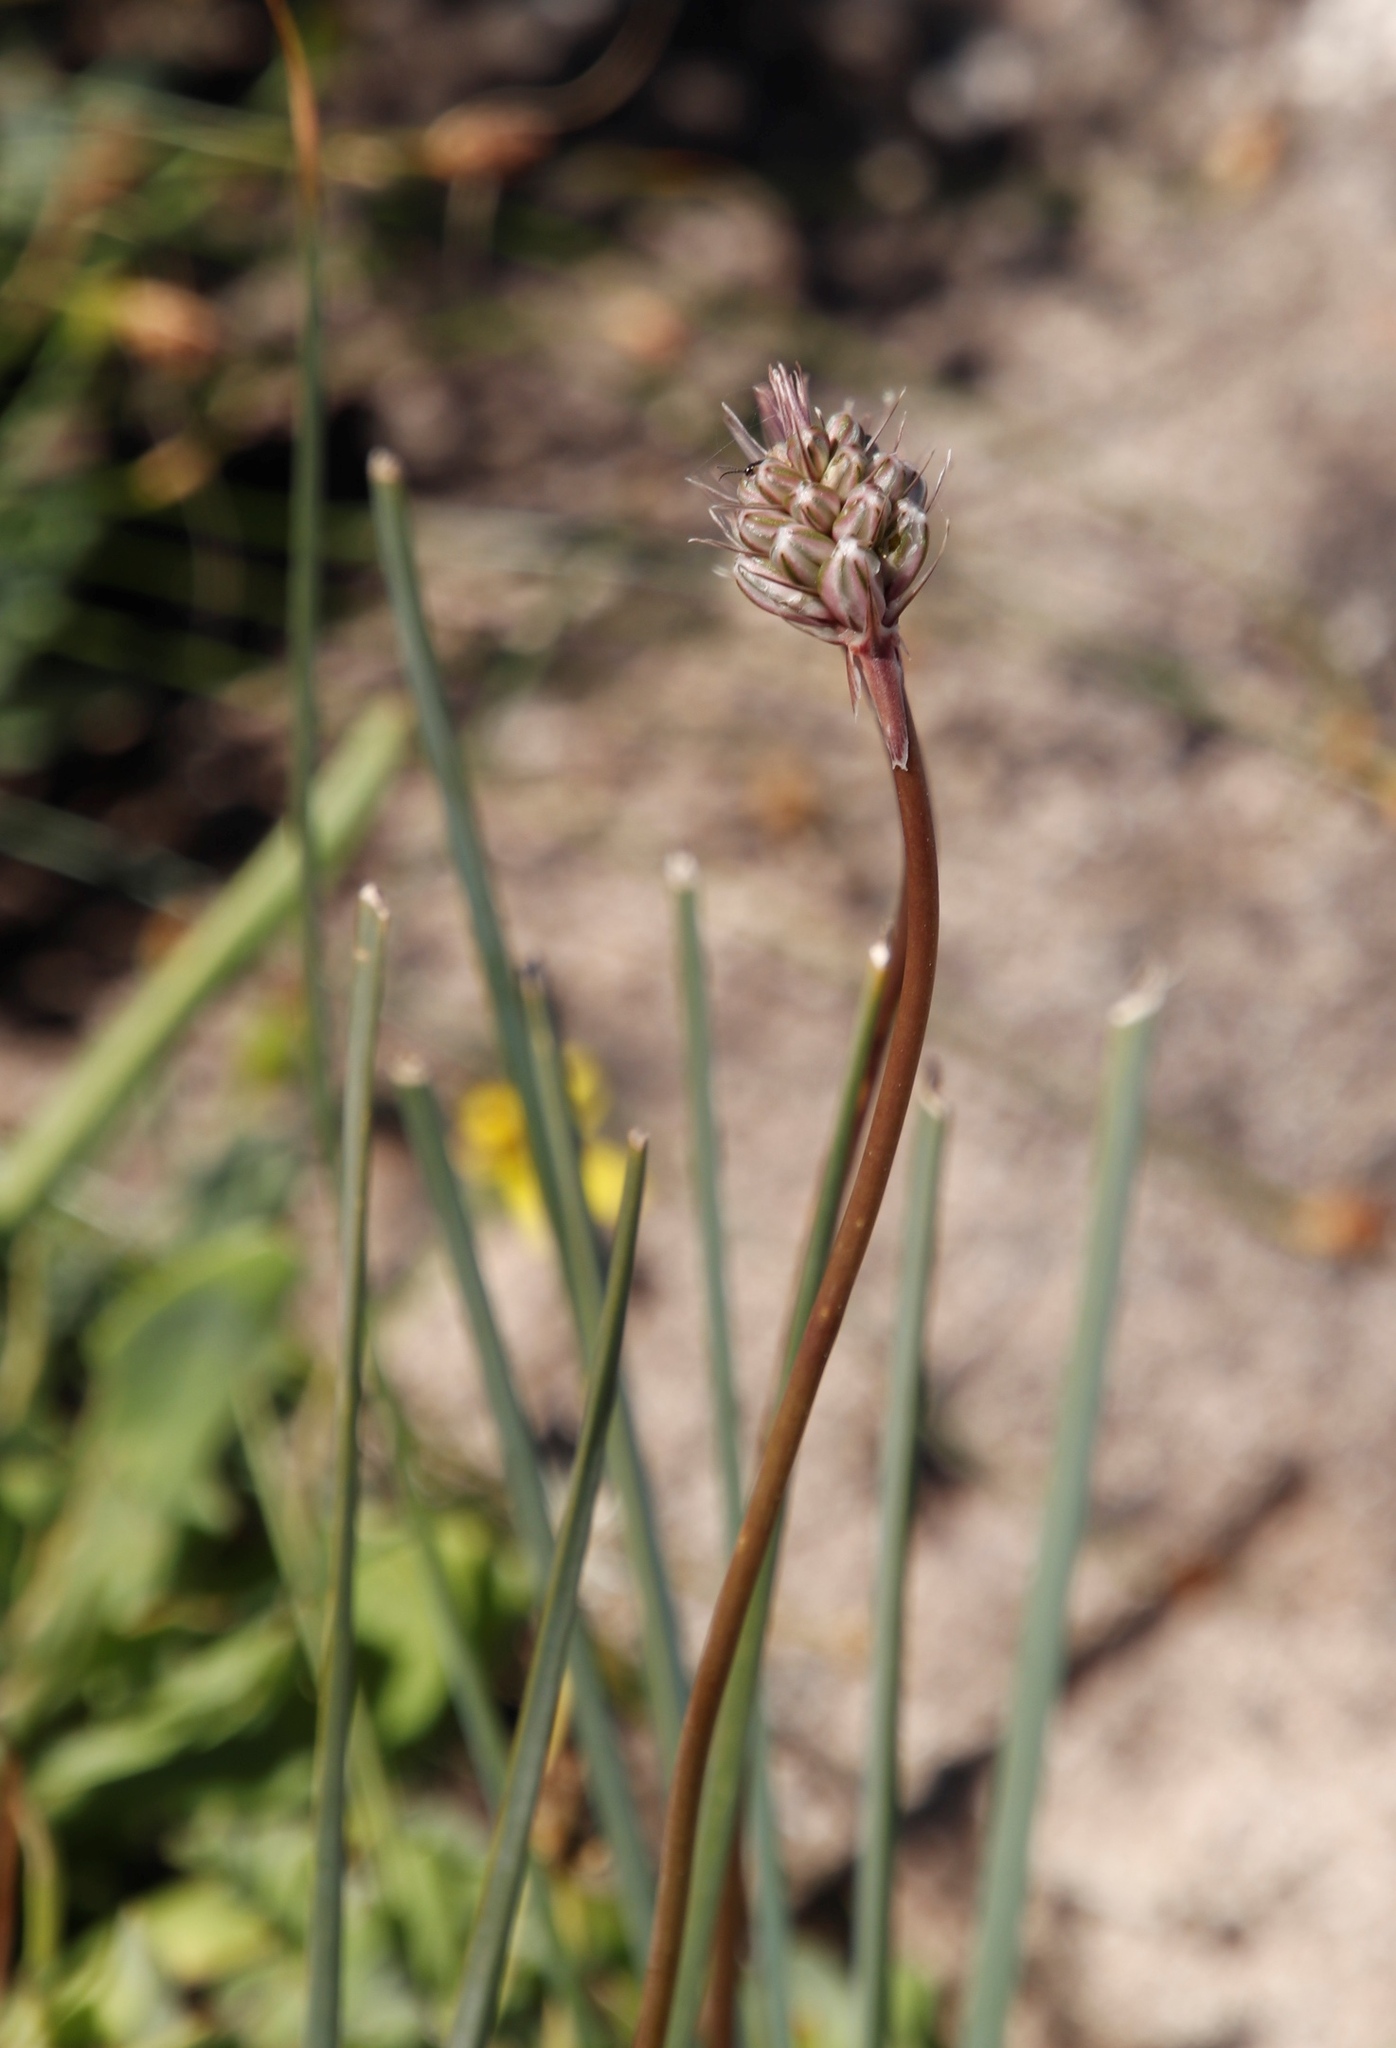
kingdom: Plantae
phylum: Tracheophyta
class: Liliopsida
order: Asparagales
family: Asparagaceae
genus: Drimia
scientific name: Drimia exuviata
